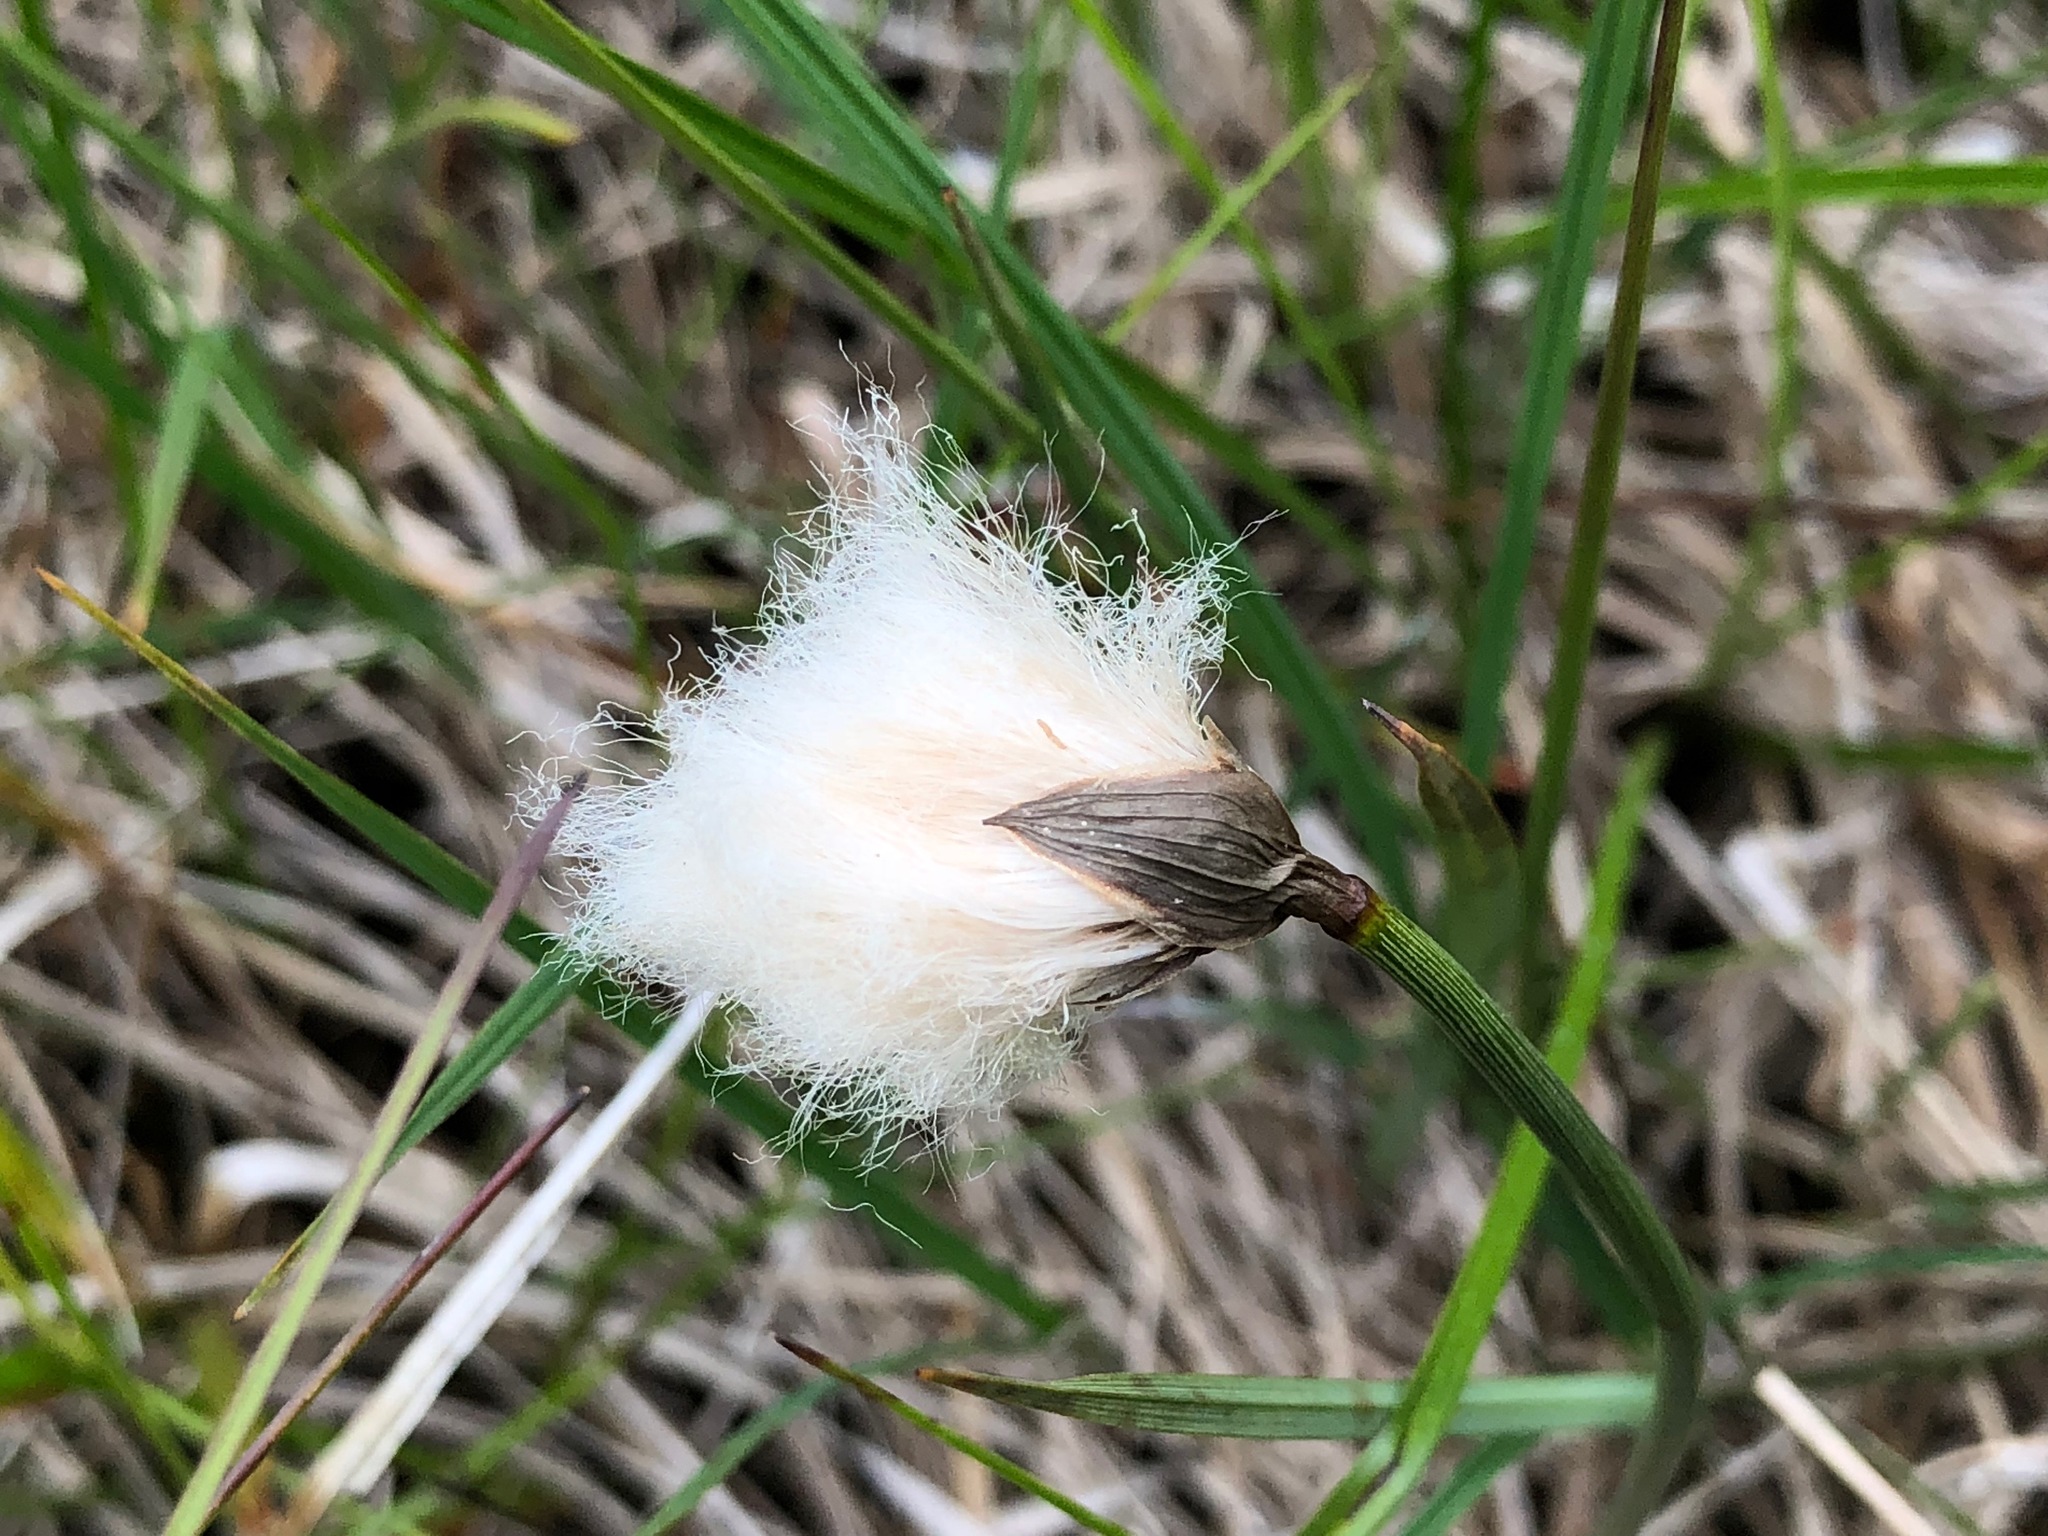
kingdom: Plantae
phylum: Tracheophyta
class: Liliopsida
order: Poales
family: Cyperaceae
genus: Eriophorum
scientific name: Eriophorum chamissonis
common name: Chamisso's cottongrass
